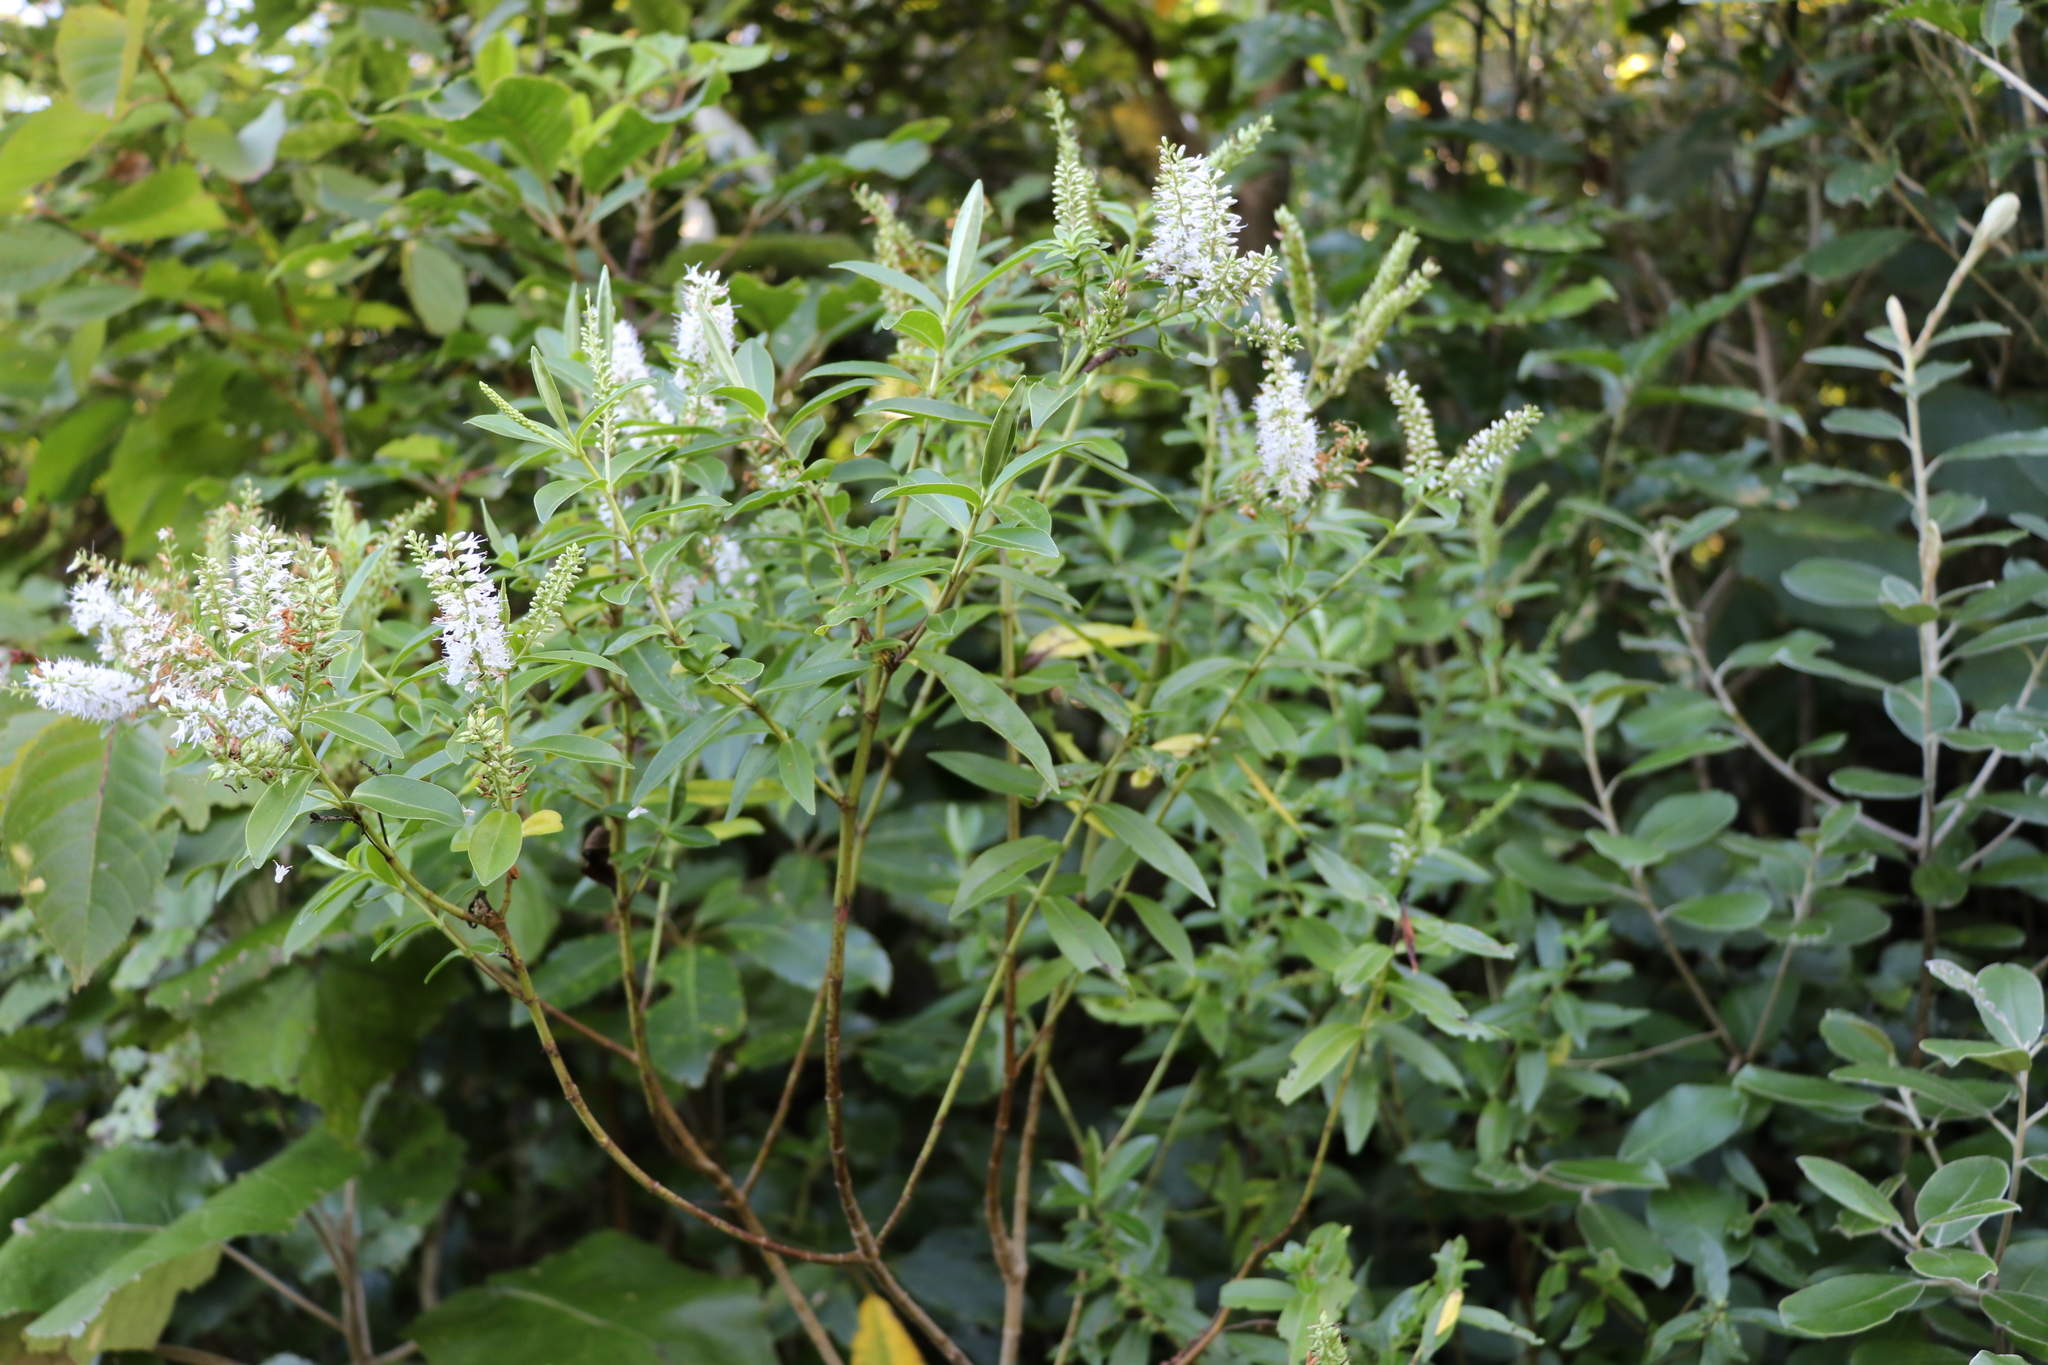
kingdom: Plantae
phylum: Tracheophyta
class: Magnoliopsida
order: Lamiales
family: Plantaginaceae
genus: Veronica
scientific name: Veronica stricta
